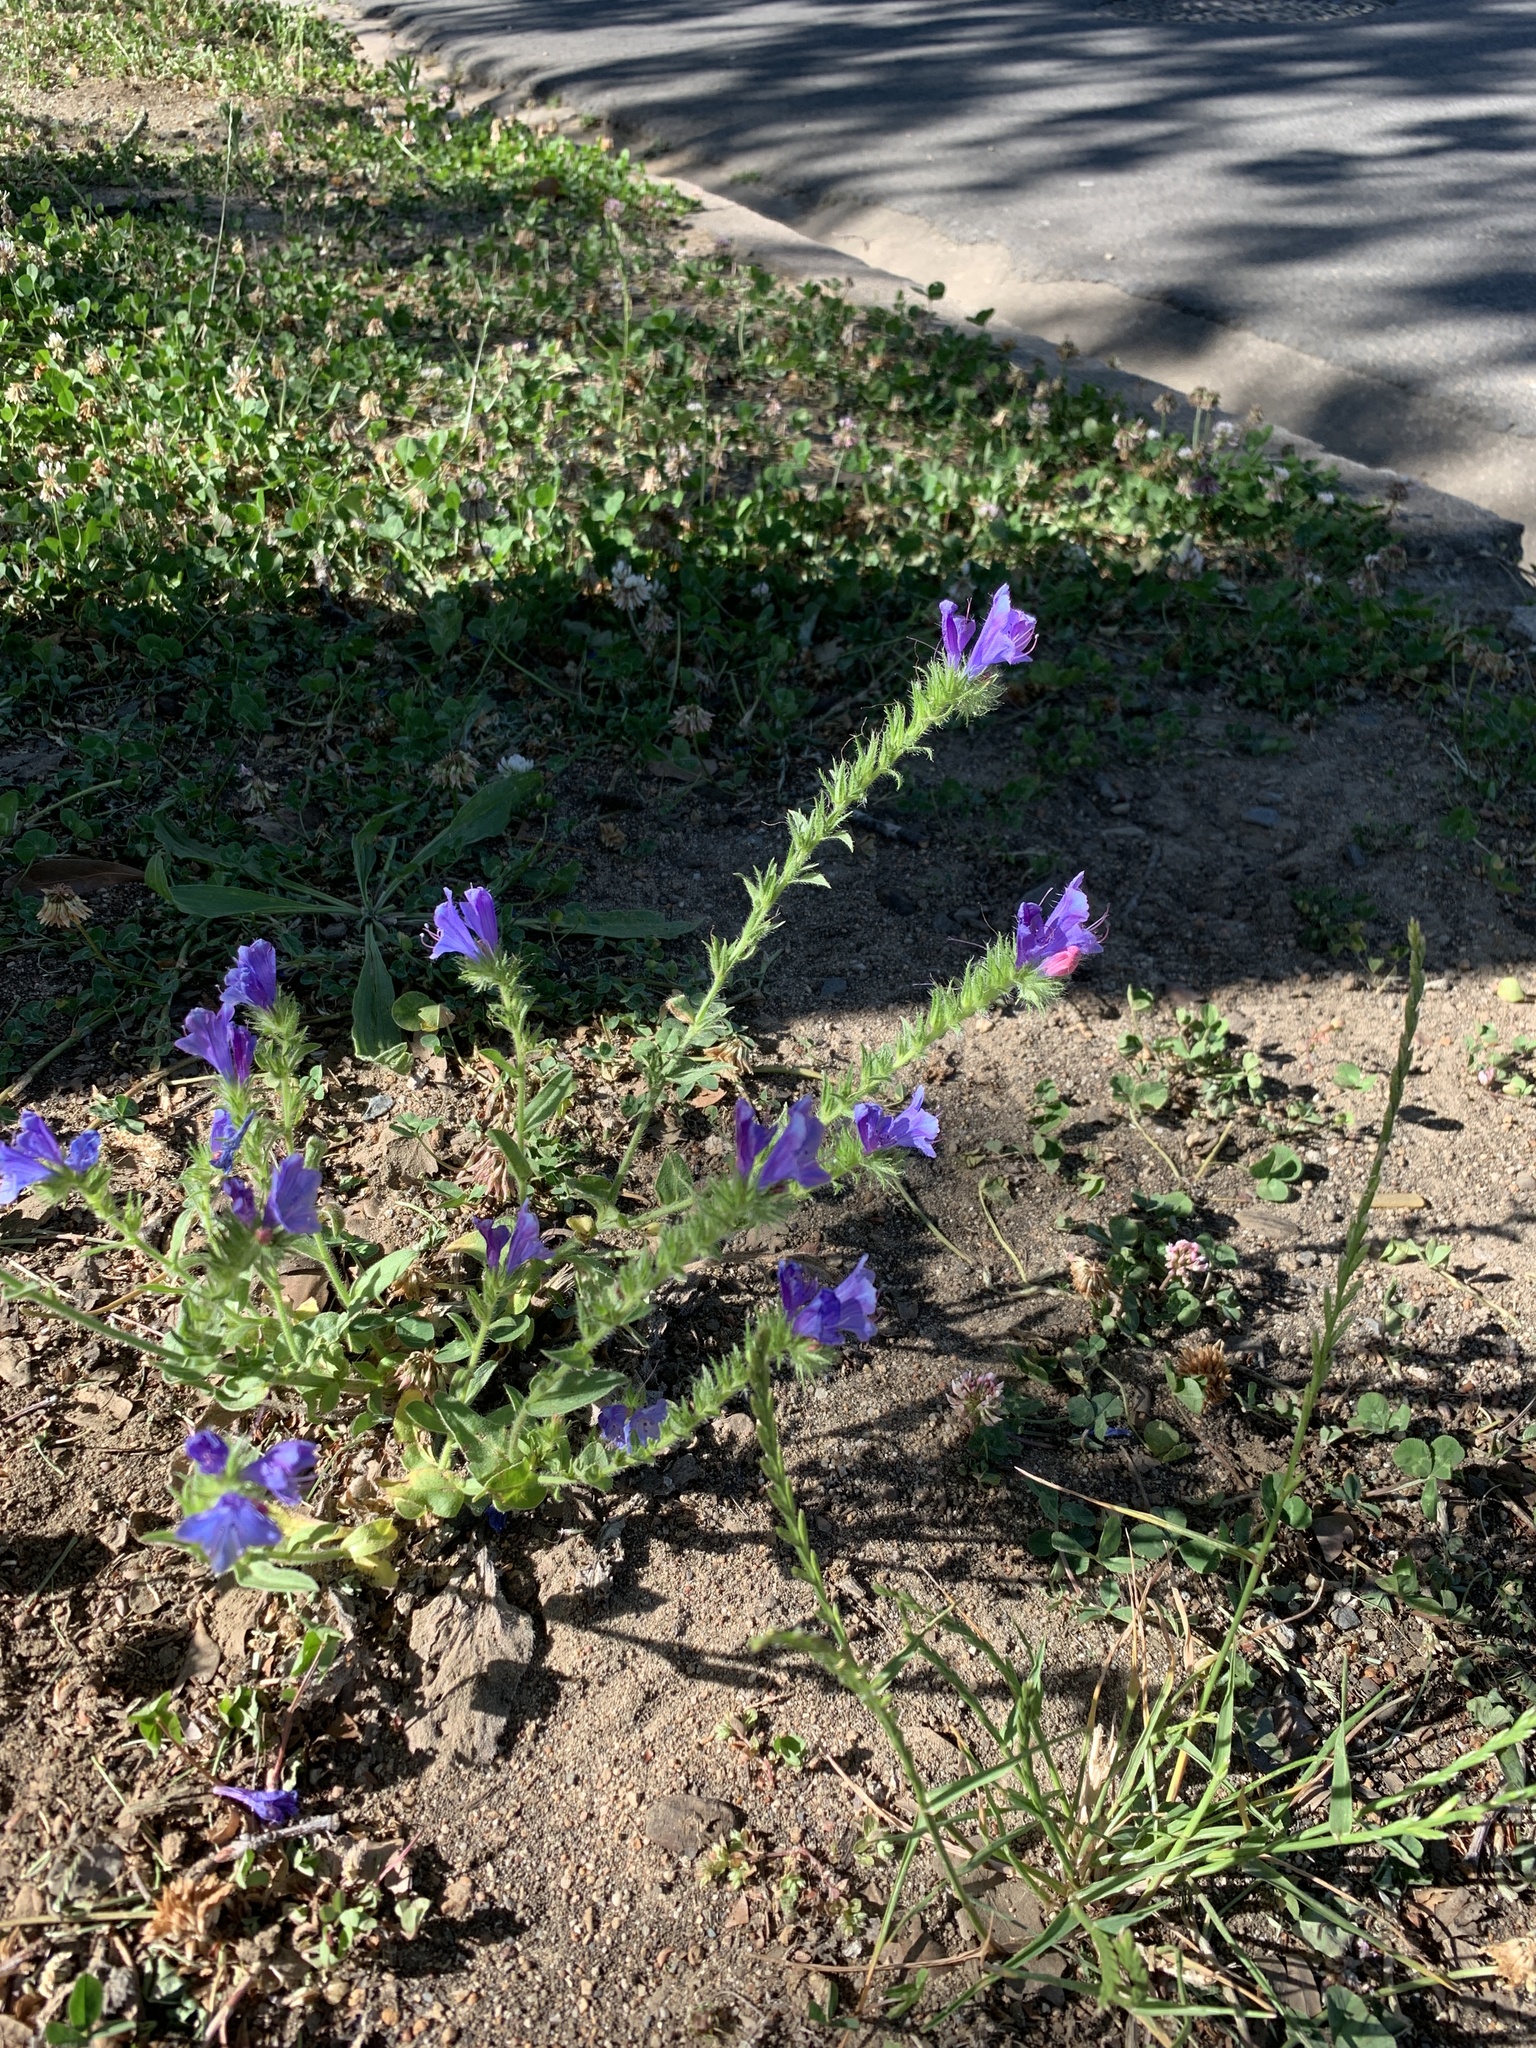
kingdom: Plantae
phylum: Tracheophyta
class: Magnoliopsida
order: Boraginales
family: Boraginaceae
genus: Echium
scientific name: Echium plantagineum
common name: Purple viper's-bugloss
